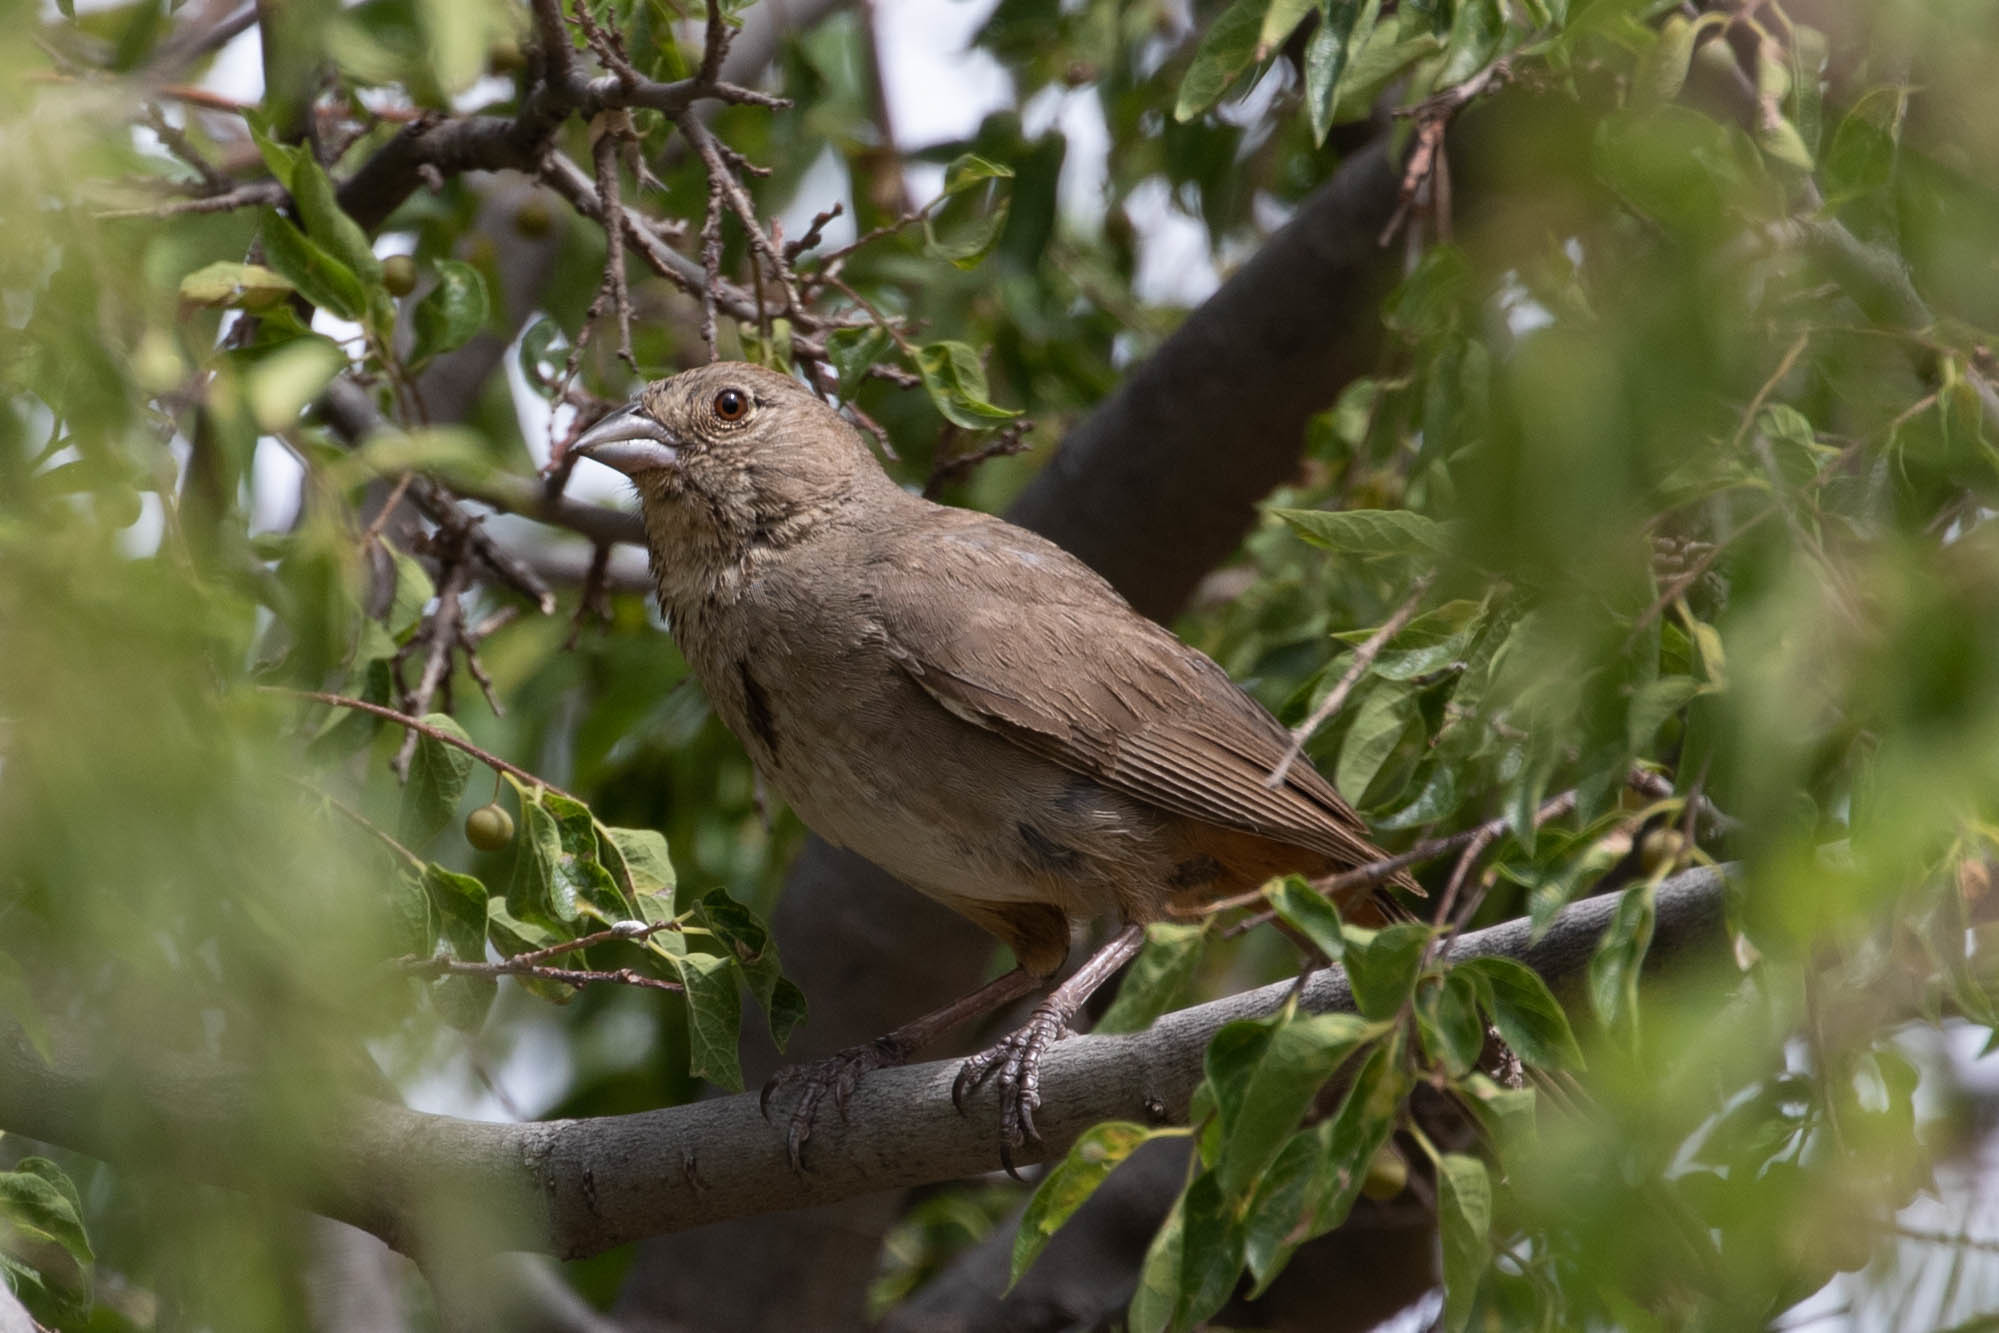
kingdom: Animalia
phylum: Chordata
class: Aves
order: Passeriformes
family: Passerellidae
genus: Melozone
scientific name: Melozone fusca
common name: Canyon towhee
